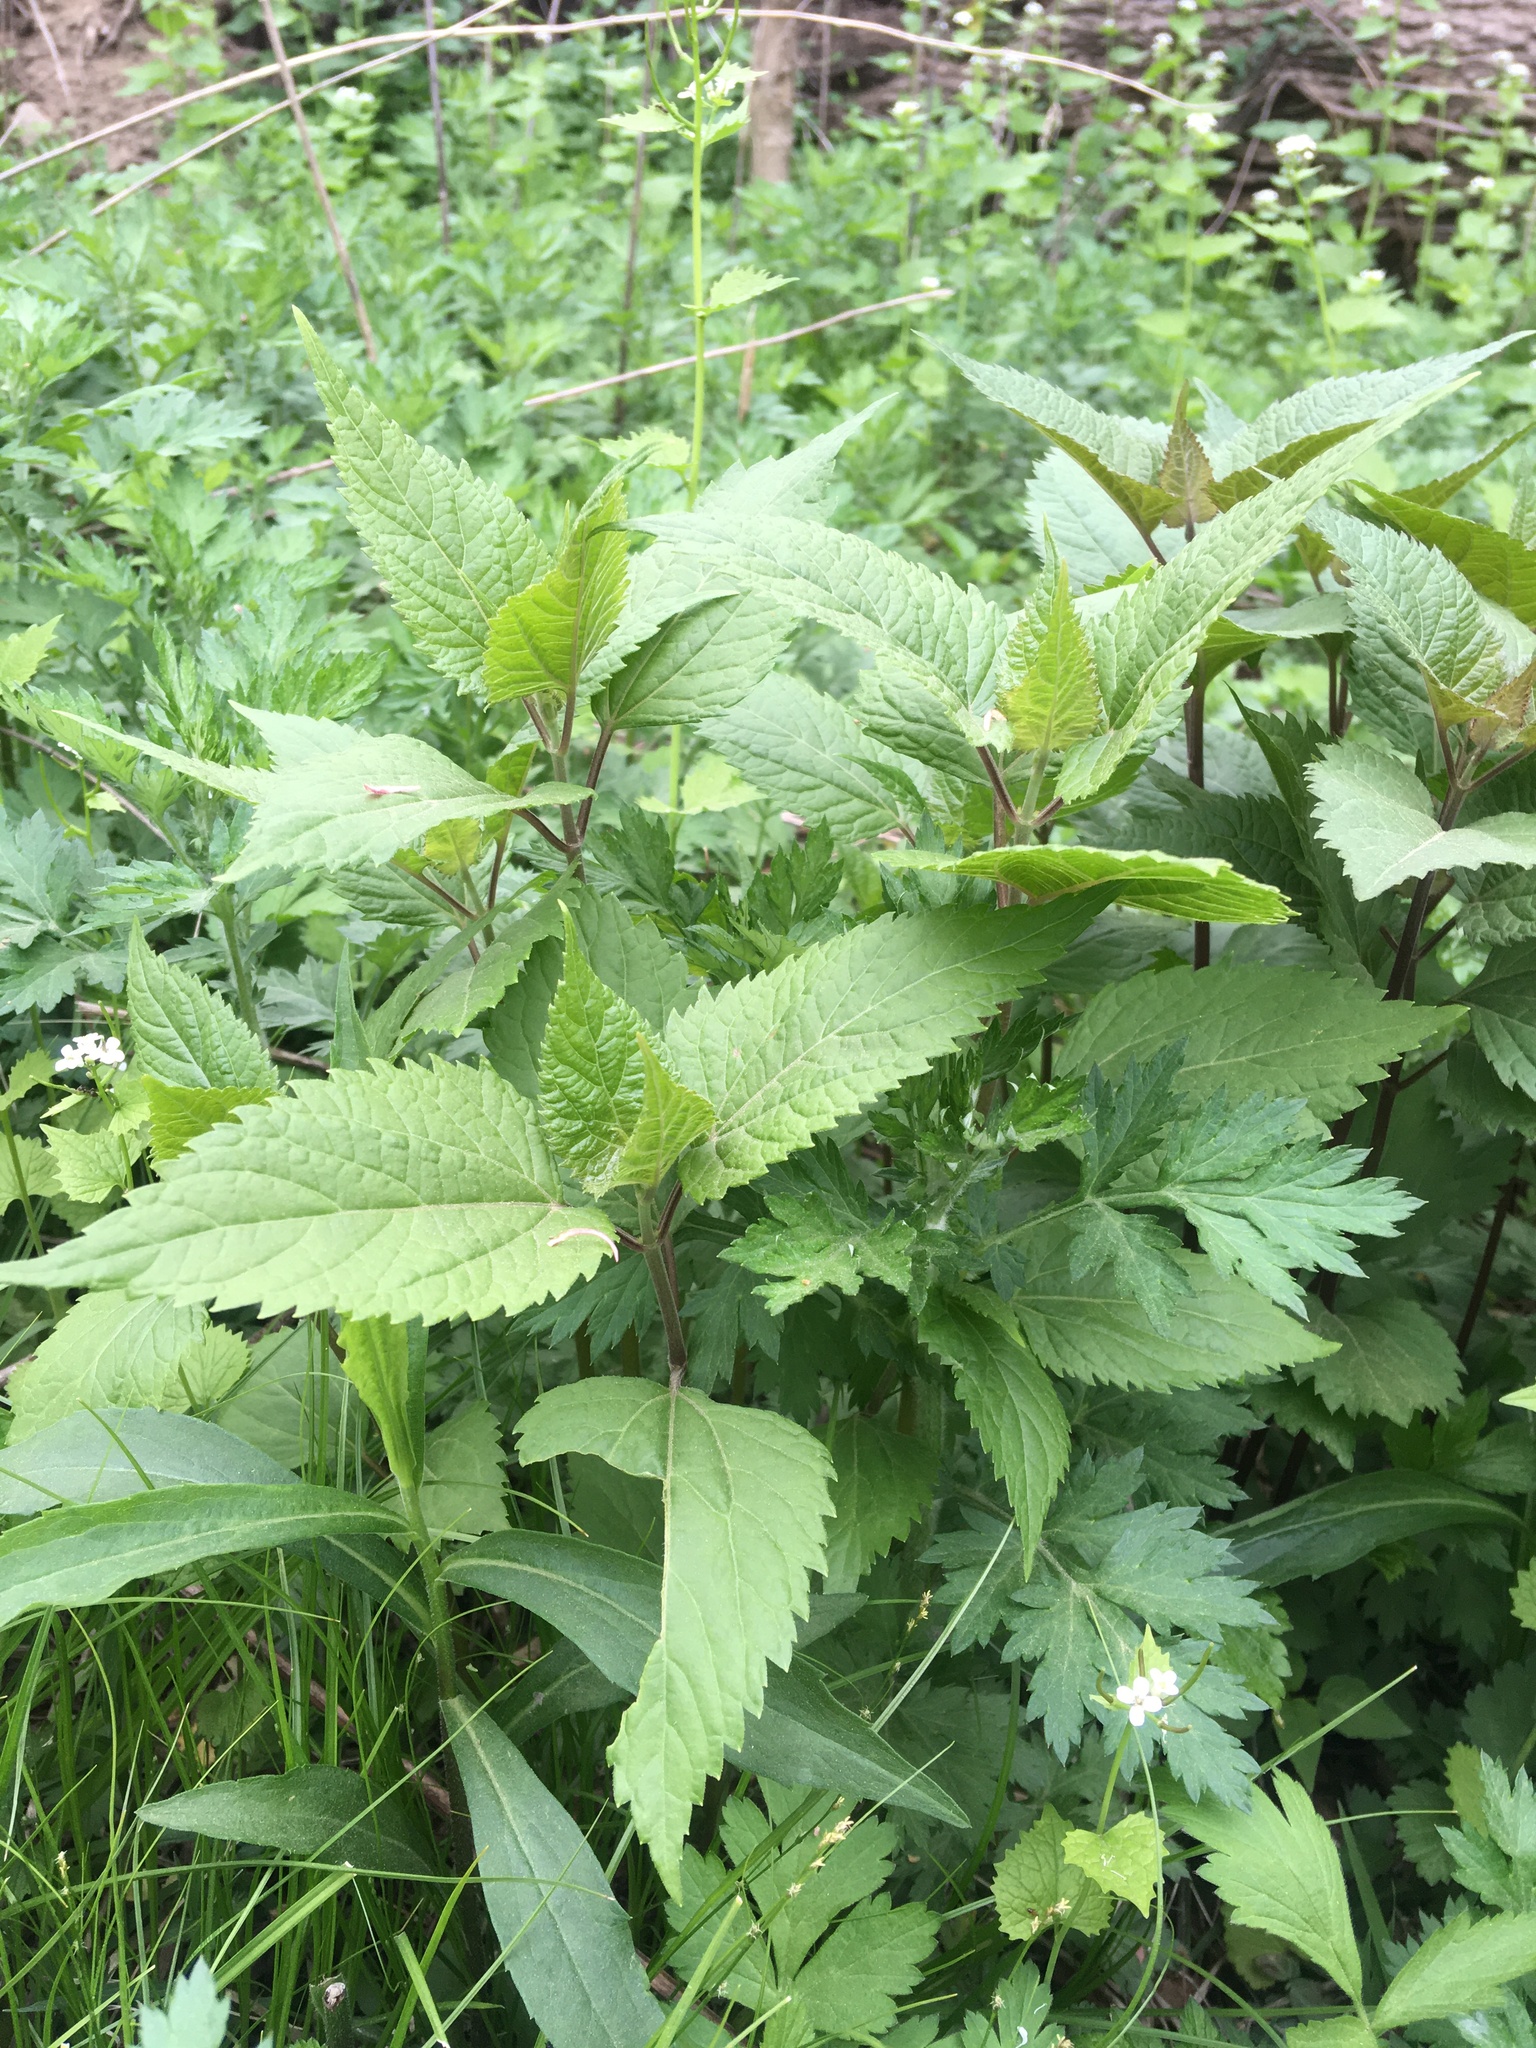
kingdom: Plantae
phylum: Tracheophyta
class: Magnoliopsida
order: Asterales
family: Asteraceae
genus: Ageratina
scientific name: Ageratina altissima
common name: White snakeroot
